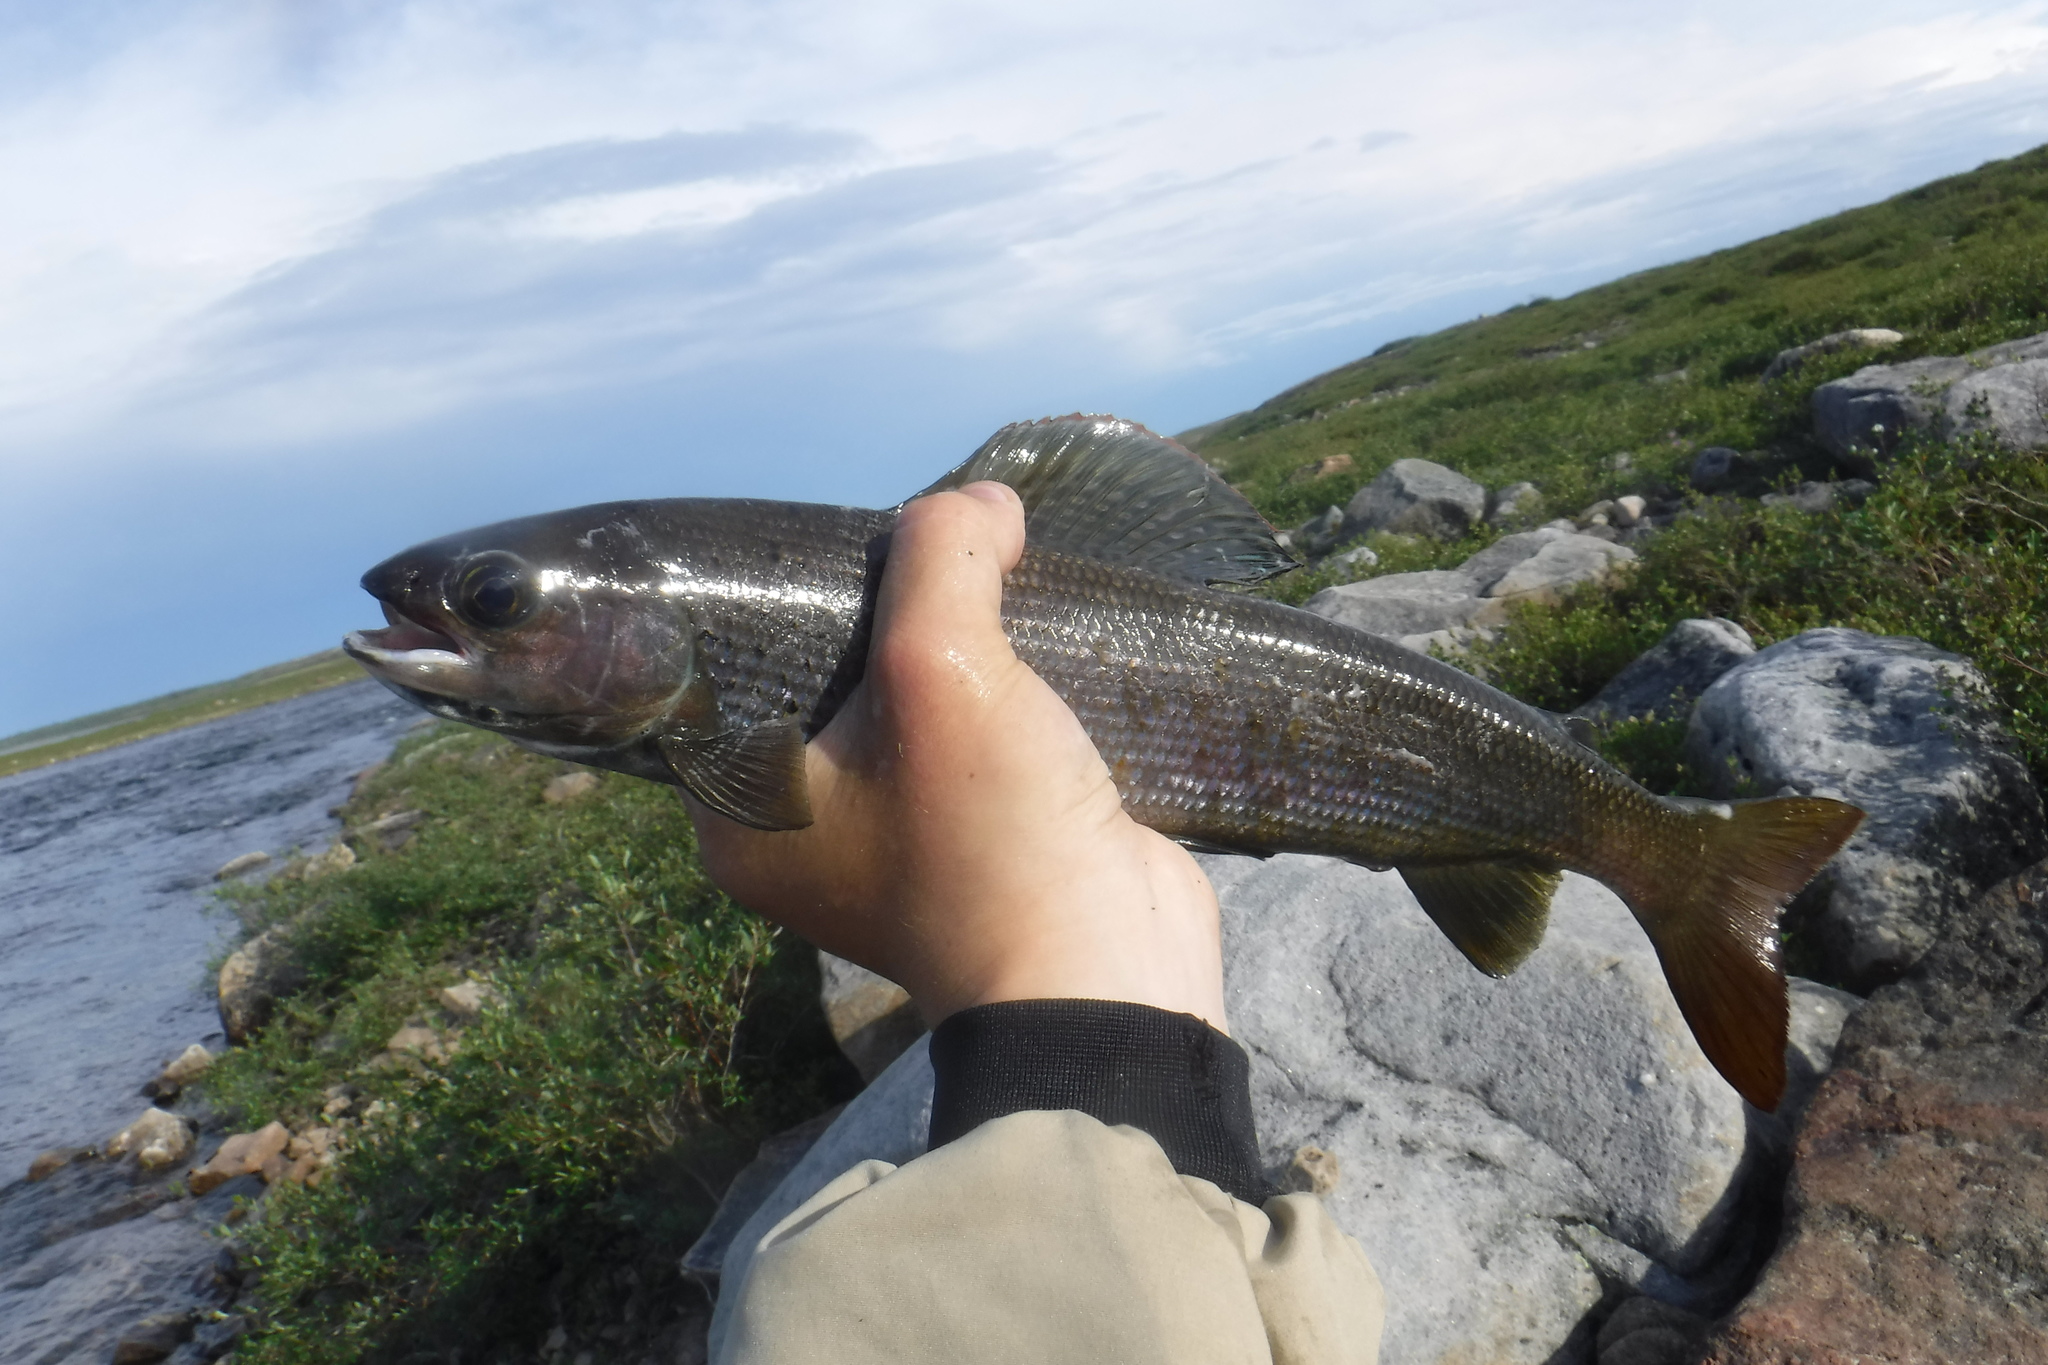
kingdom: Animalia
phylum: Chordata
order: Salmoniformes
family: Salmonidae
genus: Thymallus
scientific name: Thymallus arcticus
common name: Arctic grayling
